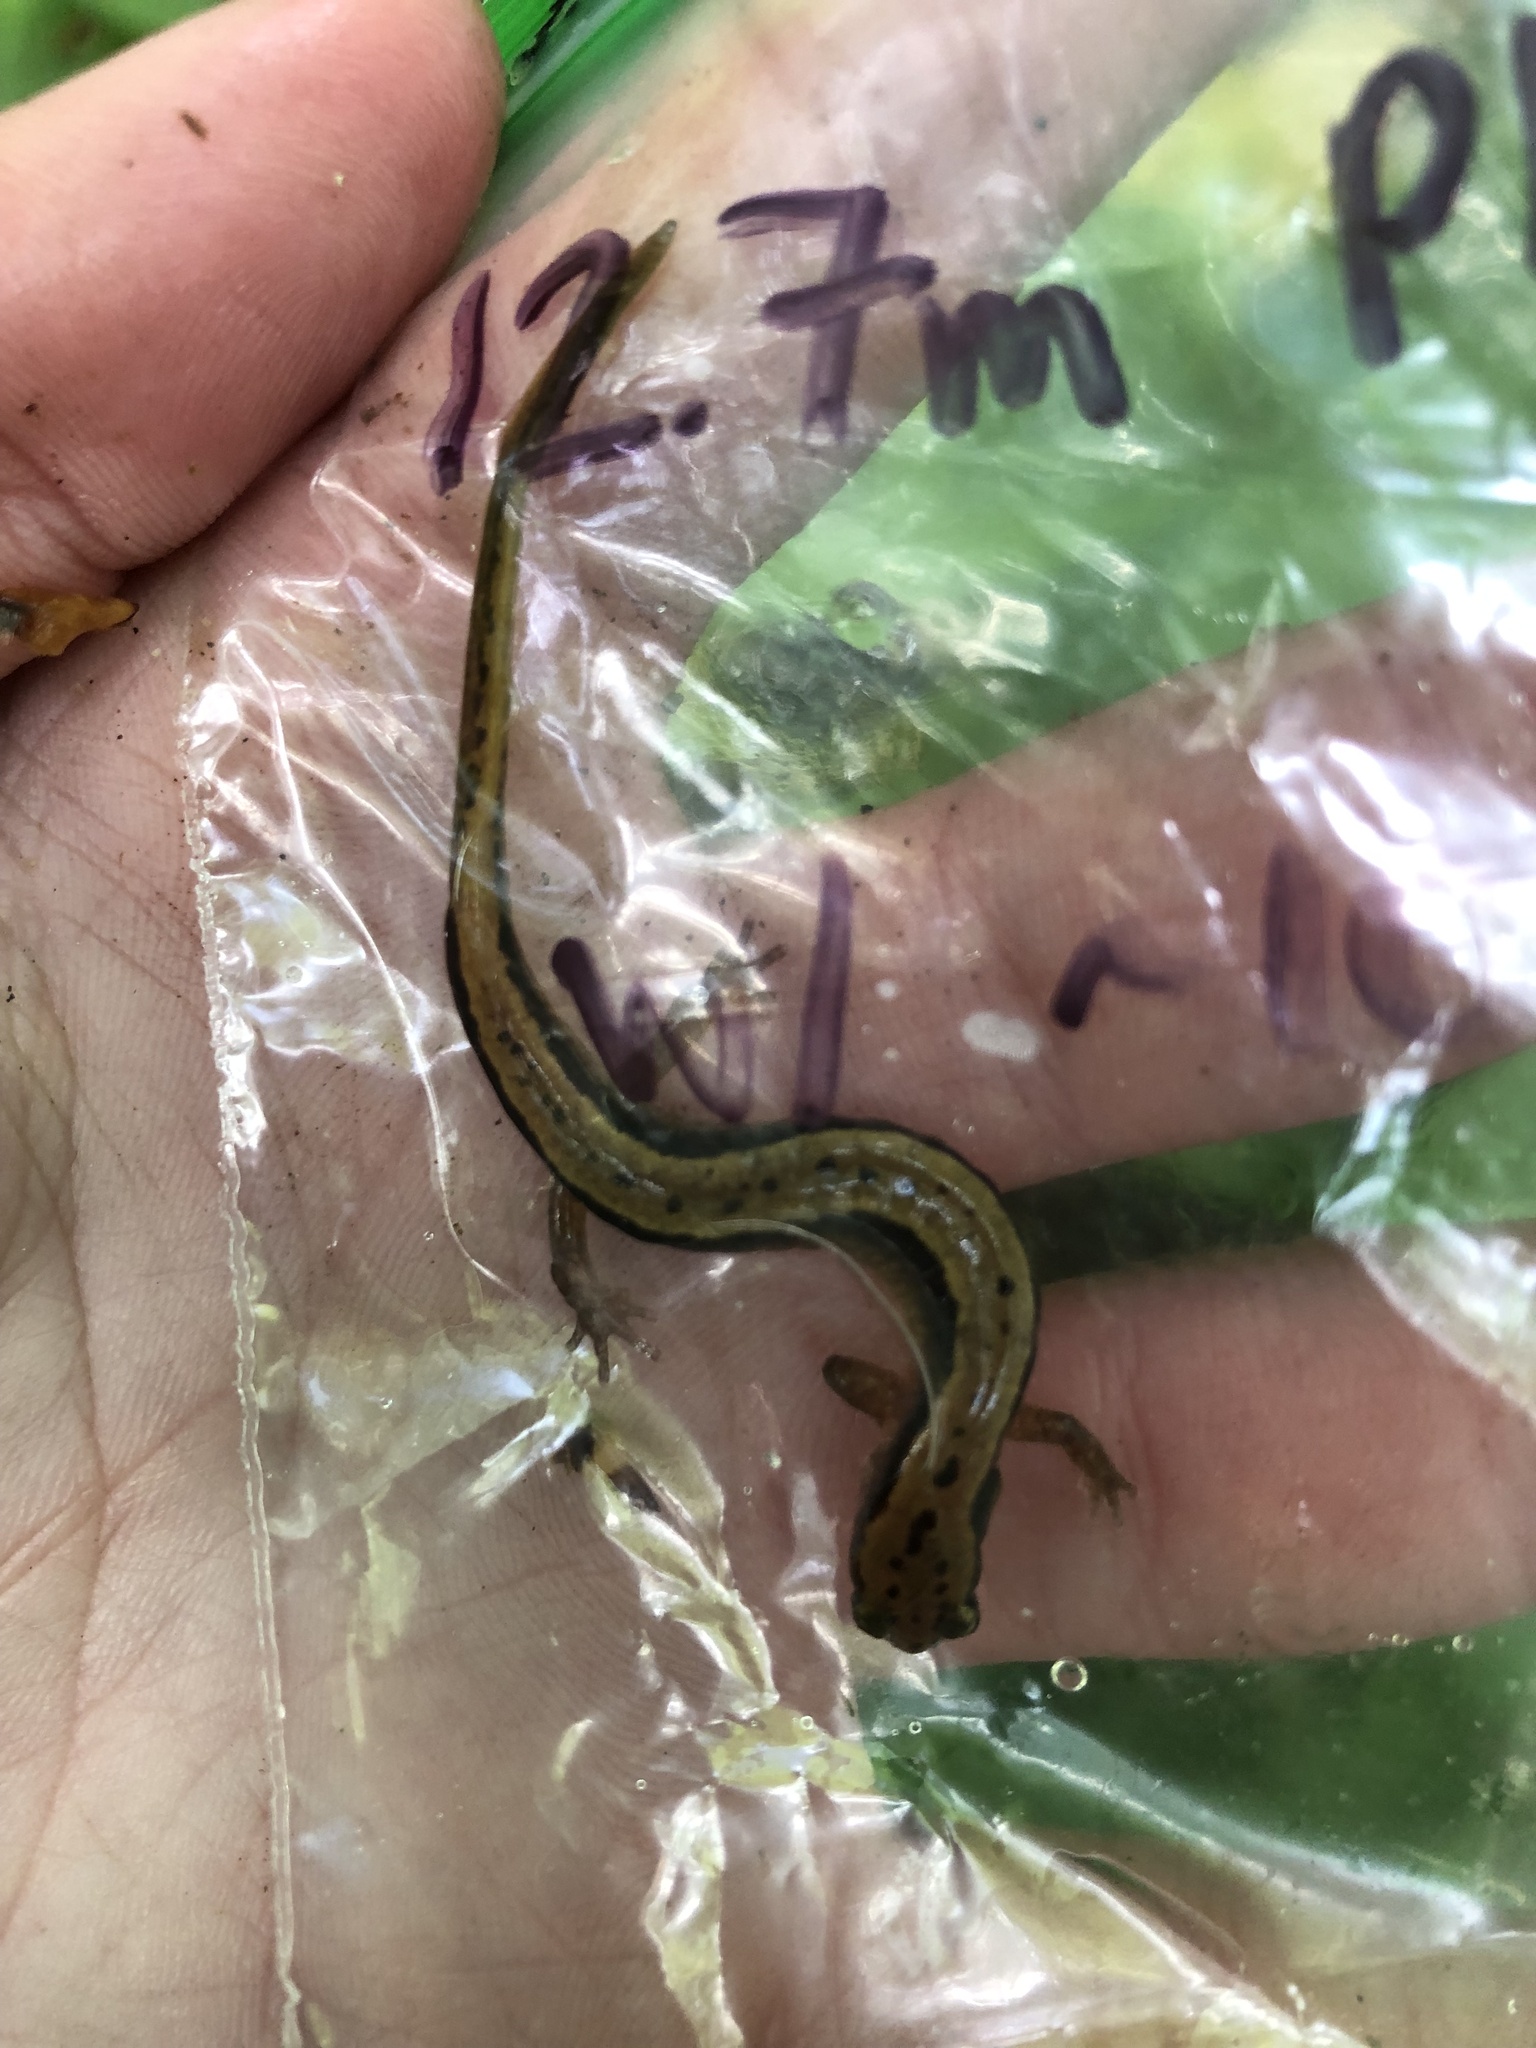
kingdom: Animalia
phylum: Chordata
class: Amphibia
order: Caudata
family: Plethodontidae
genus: Eurycea
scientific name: Eurycea cirrigera
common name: Southern two-lined salamander
